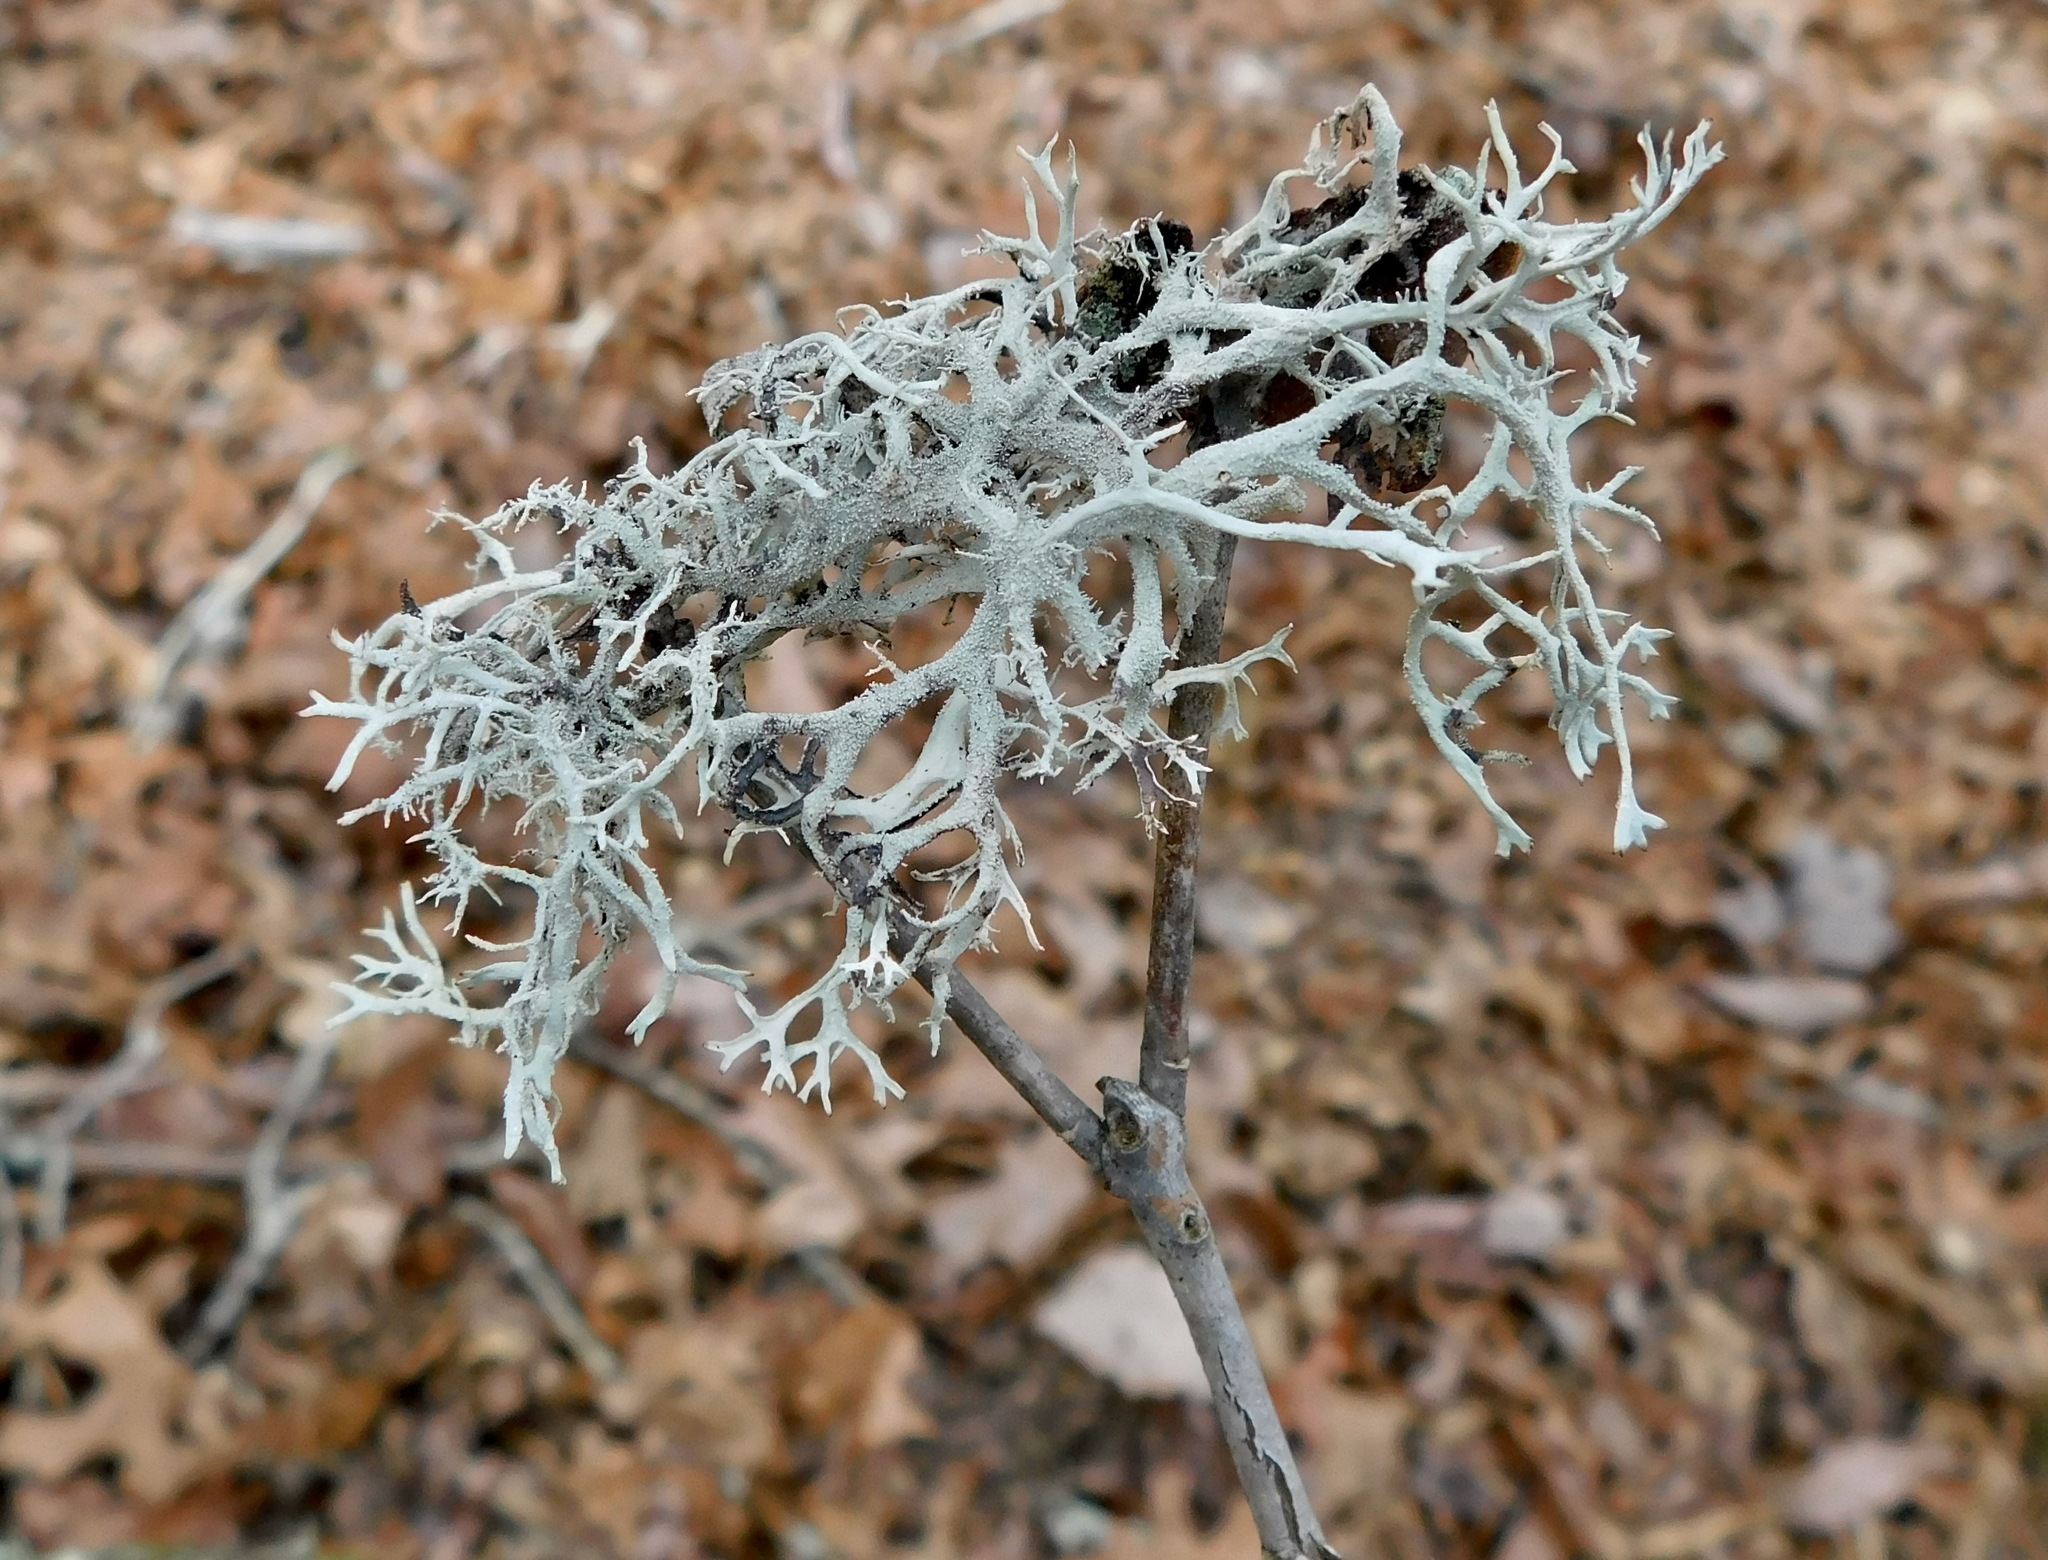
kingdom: Fungi
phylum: Ascomycota
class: Lecanoromycetes
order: Lecanorales
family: Parmeliaceae
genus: Pseudevernia
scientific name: Pseudevernia consocians
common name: Common antler lichen
